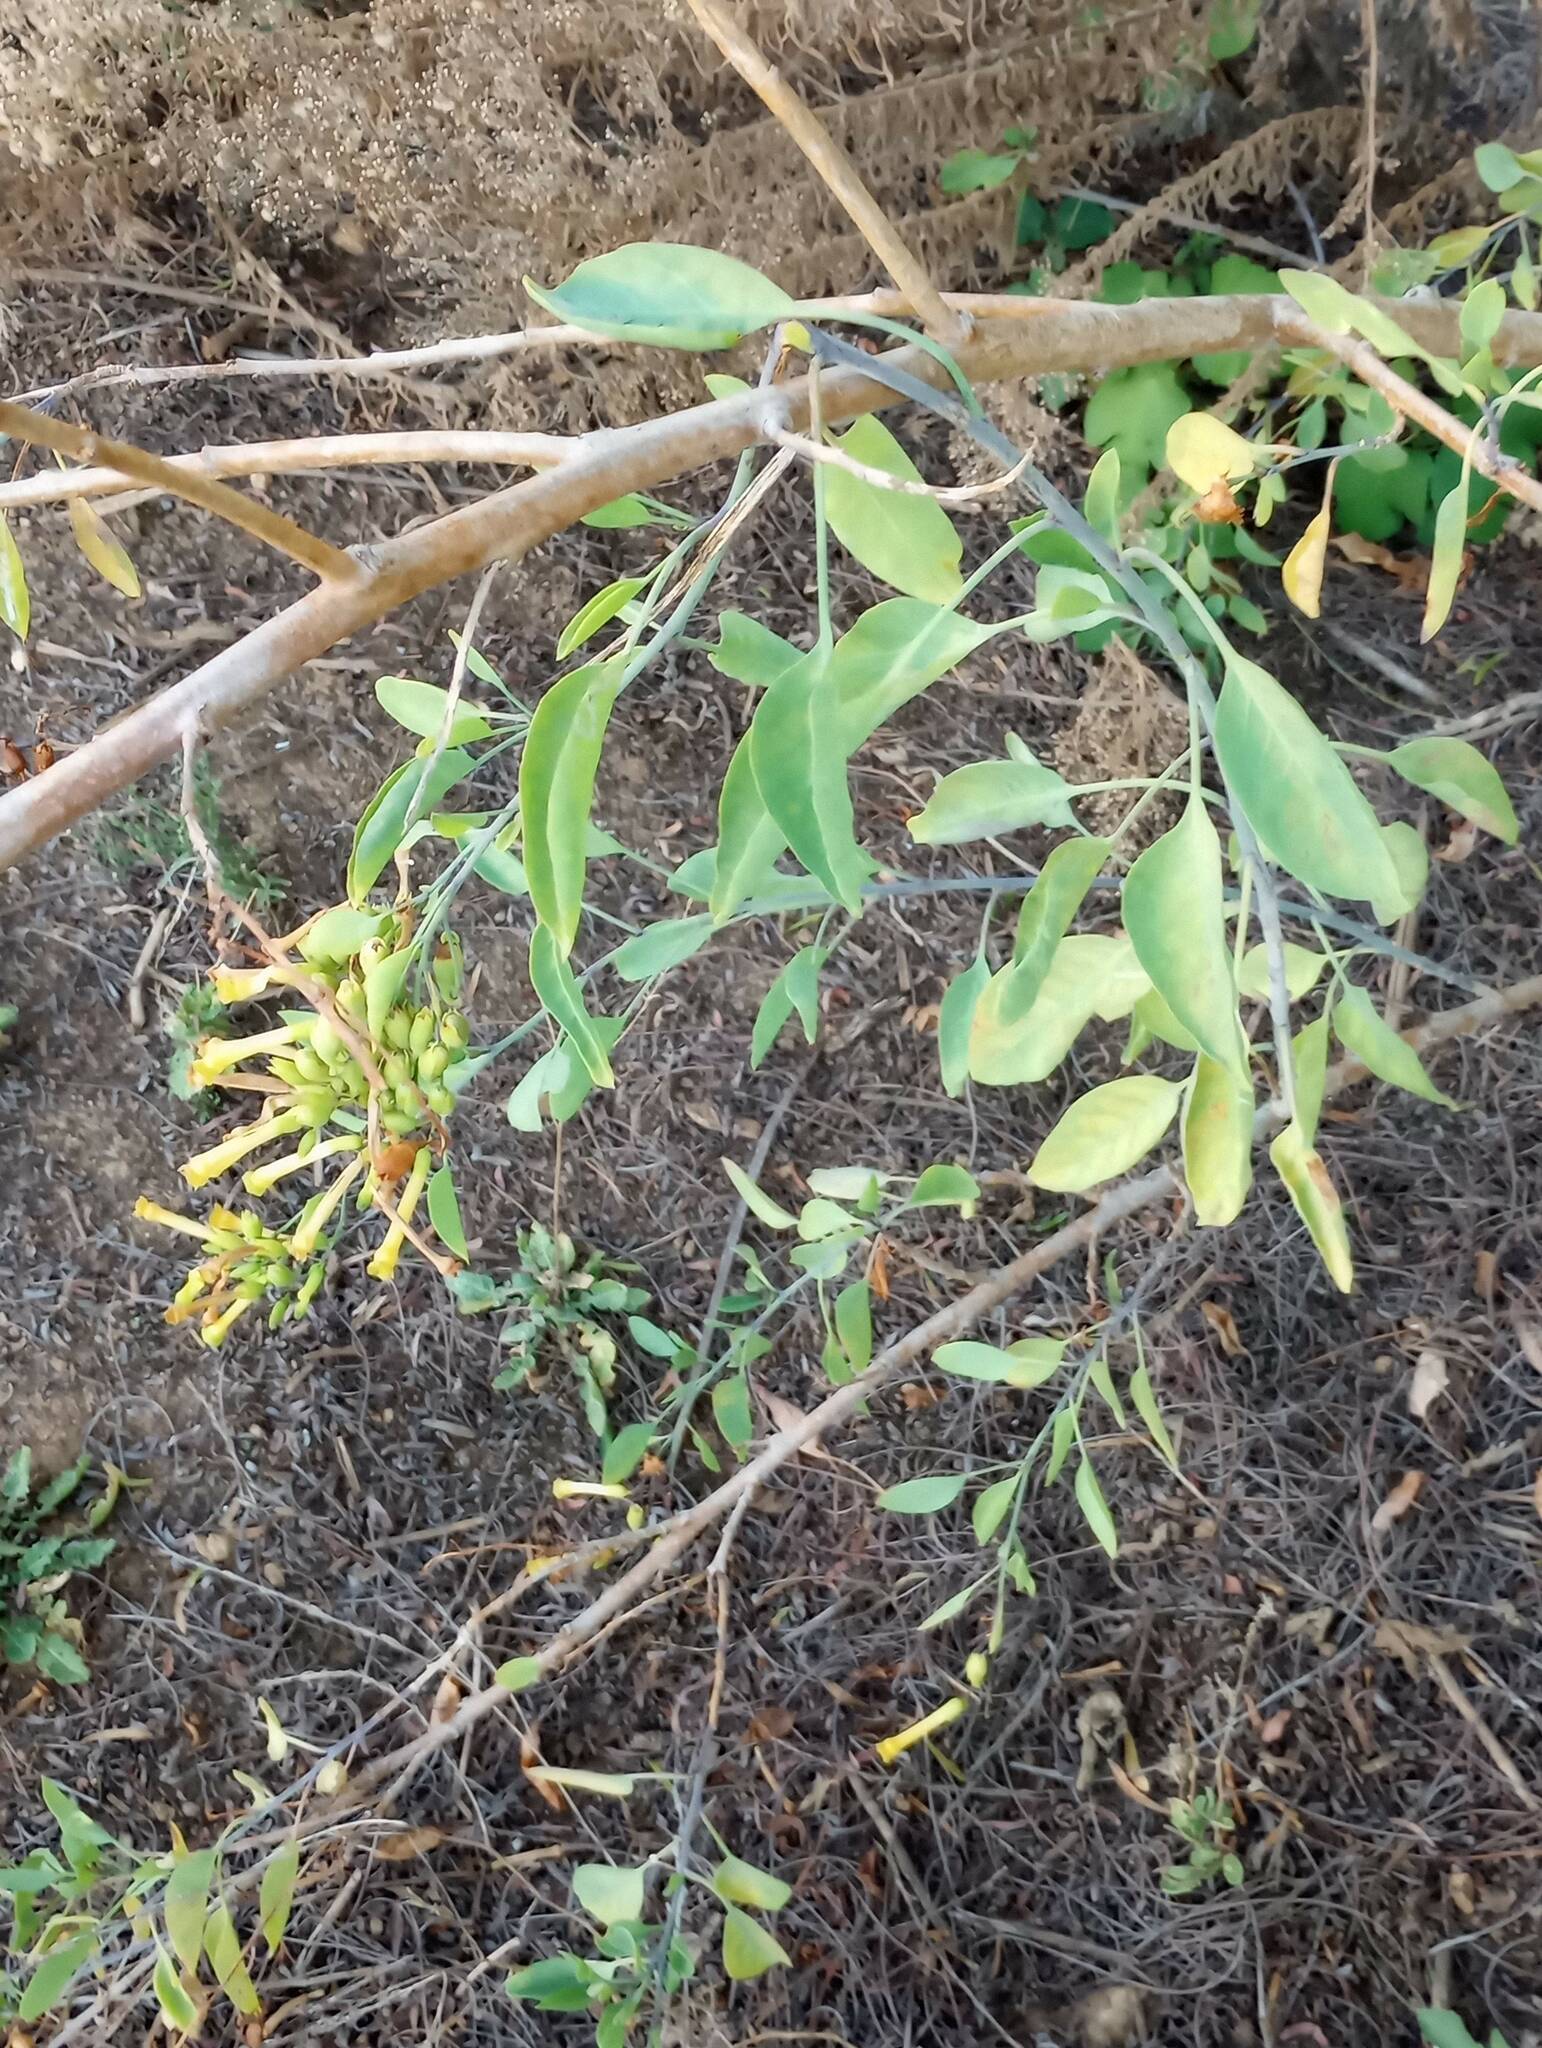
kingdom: Plantae
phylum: Tracheophyta
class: Magnoliopsida
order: Solanales
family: Solanaceae
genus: Nicotiana
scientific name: Nicotiana glauca
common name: Tree tobacco
